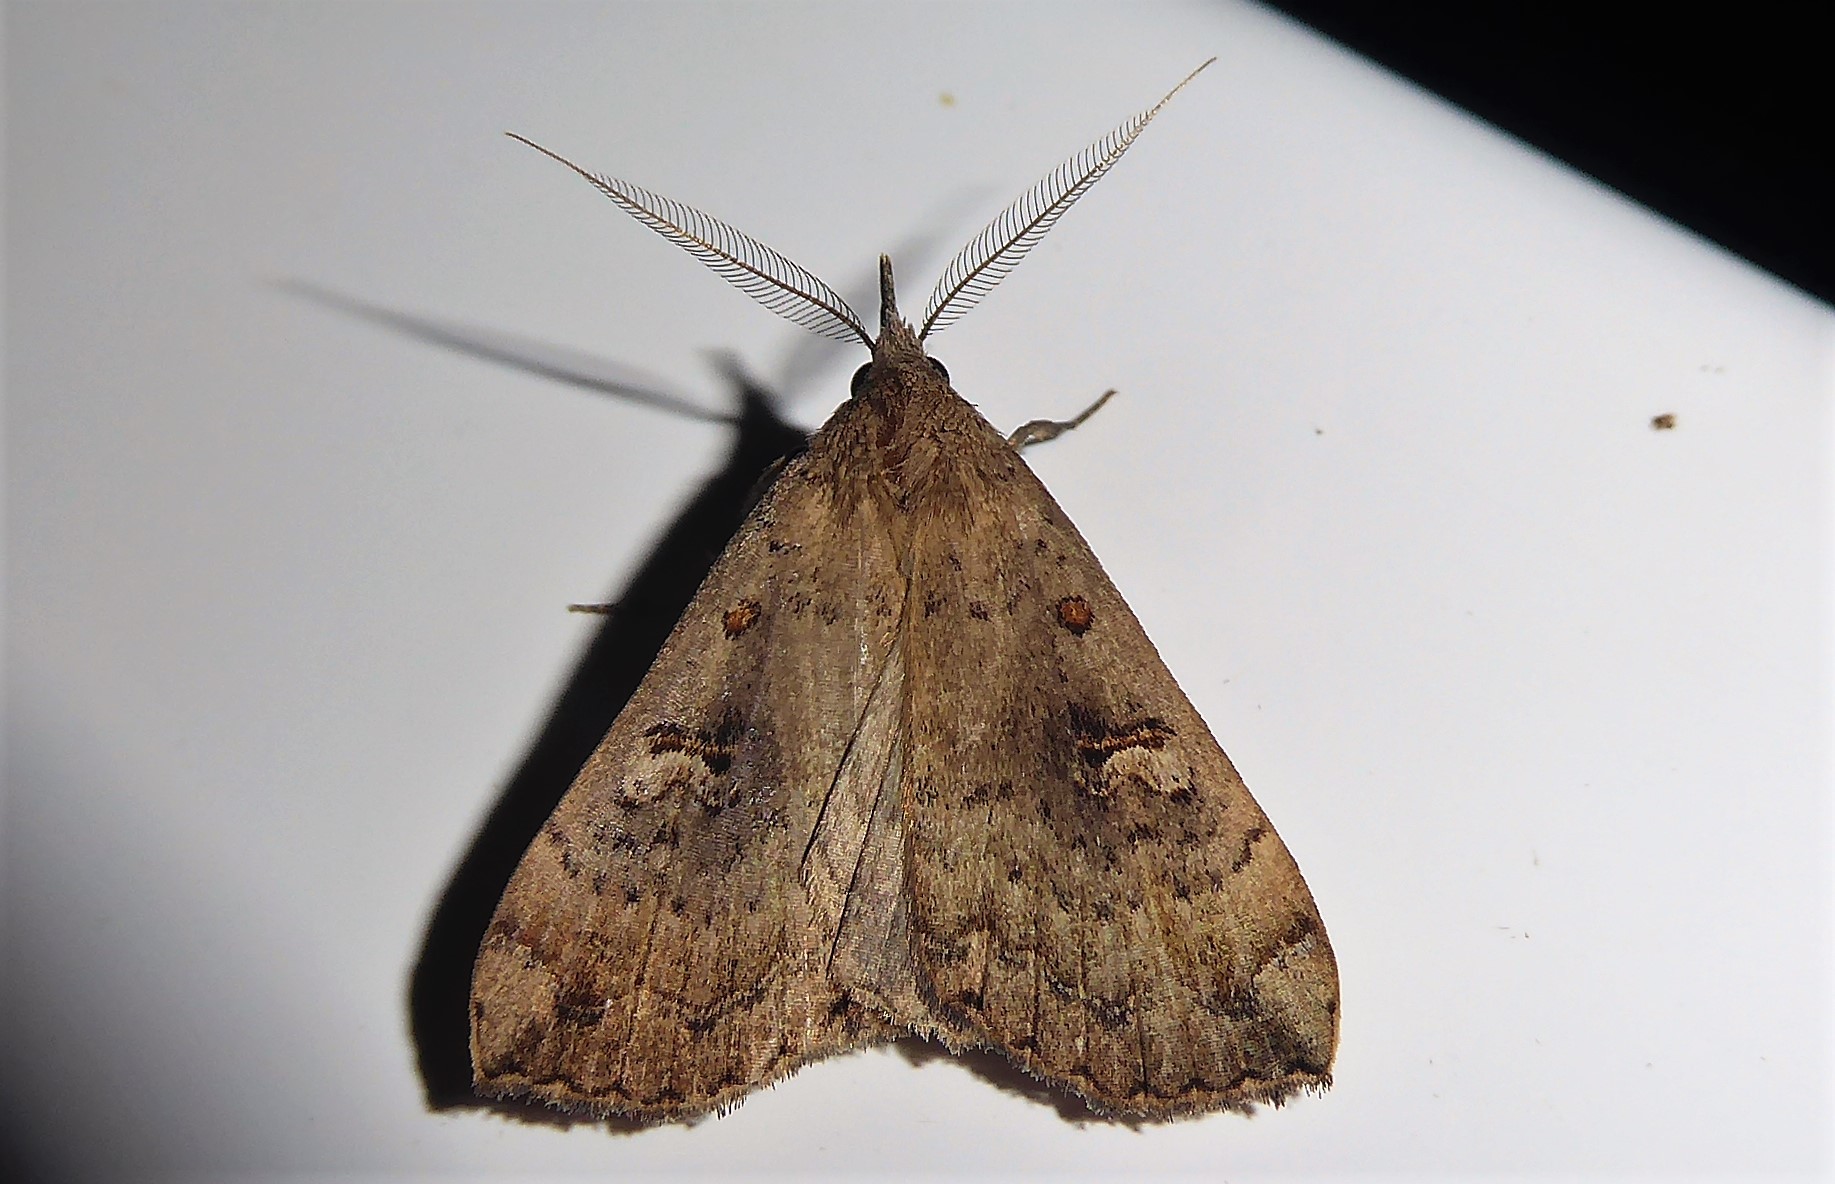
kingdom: Animalia
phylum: Arthropoda
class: Insecta
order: Lepidoptera
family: Erebidae
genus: Rhapsa
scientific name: Rhapsa scotosialis
